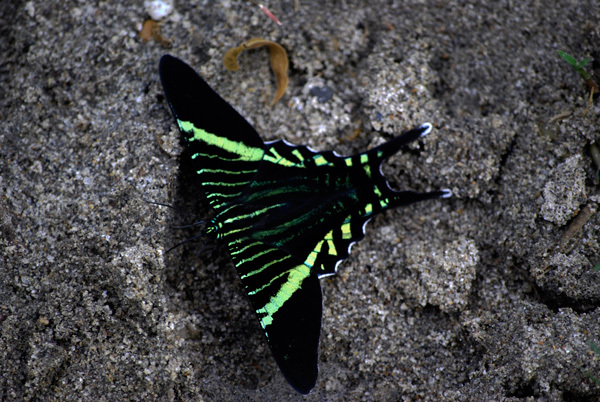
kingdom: Animalia
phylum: Arthropoda
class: Insecta
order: Lepidoptera
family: Uraniidae
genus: Urania
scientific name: Urania fulgens
